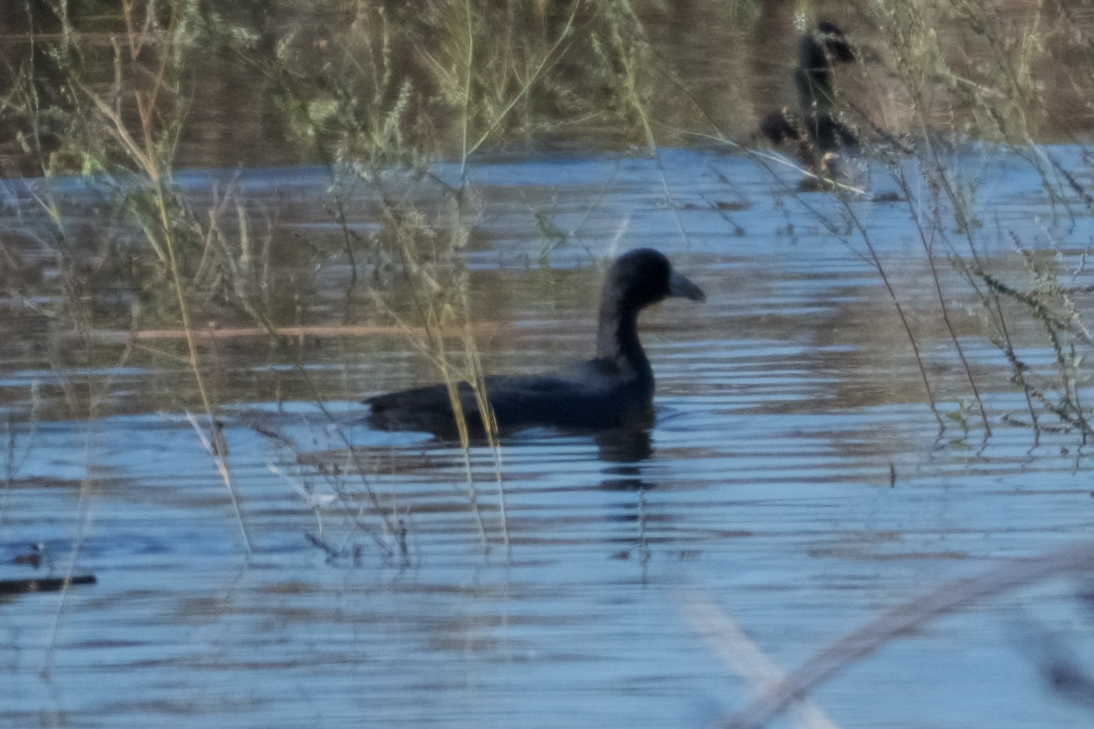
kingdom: Animalia
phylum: Chordata
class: Aves
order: Gruiformes
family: Rallidae
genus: Fulica
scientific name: Fulica americana
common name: American coot
